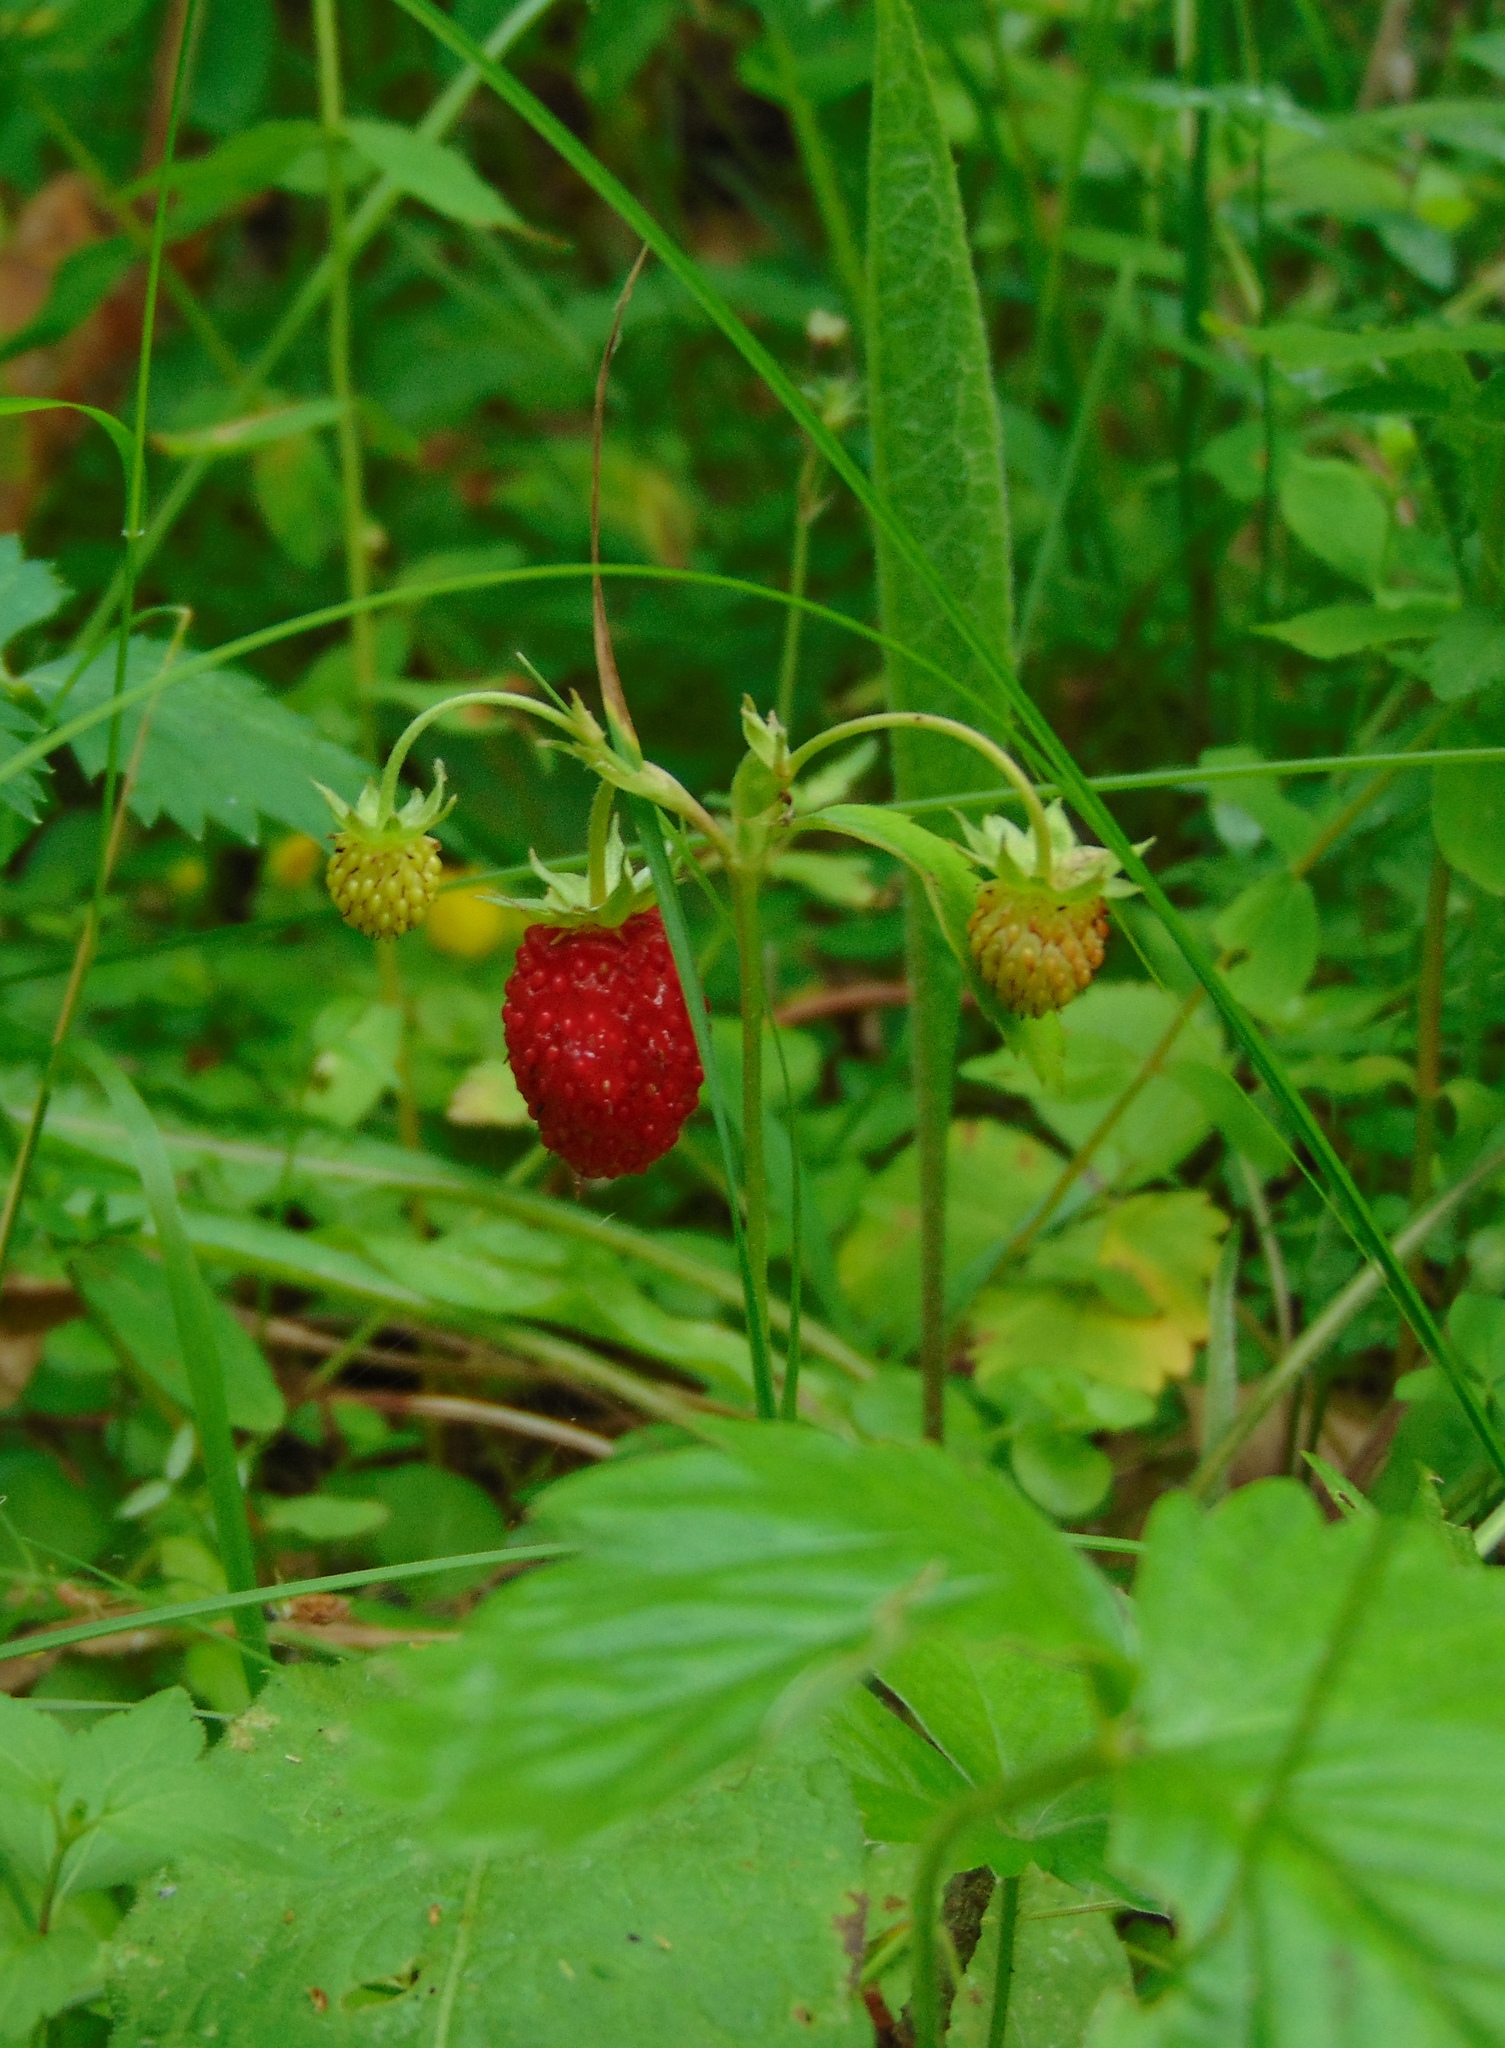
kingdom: Plantae
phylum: Tracheophyta
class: Magnoliopsida
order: Rosales
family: Rosaceae
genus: Fragaria
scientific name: Fragaria vesca
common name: Wild strawberry
